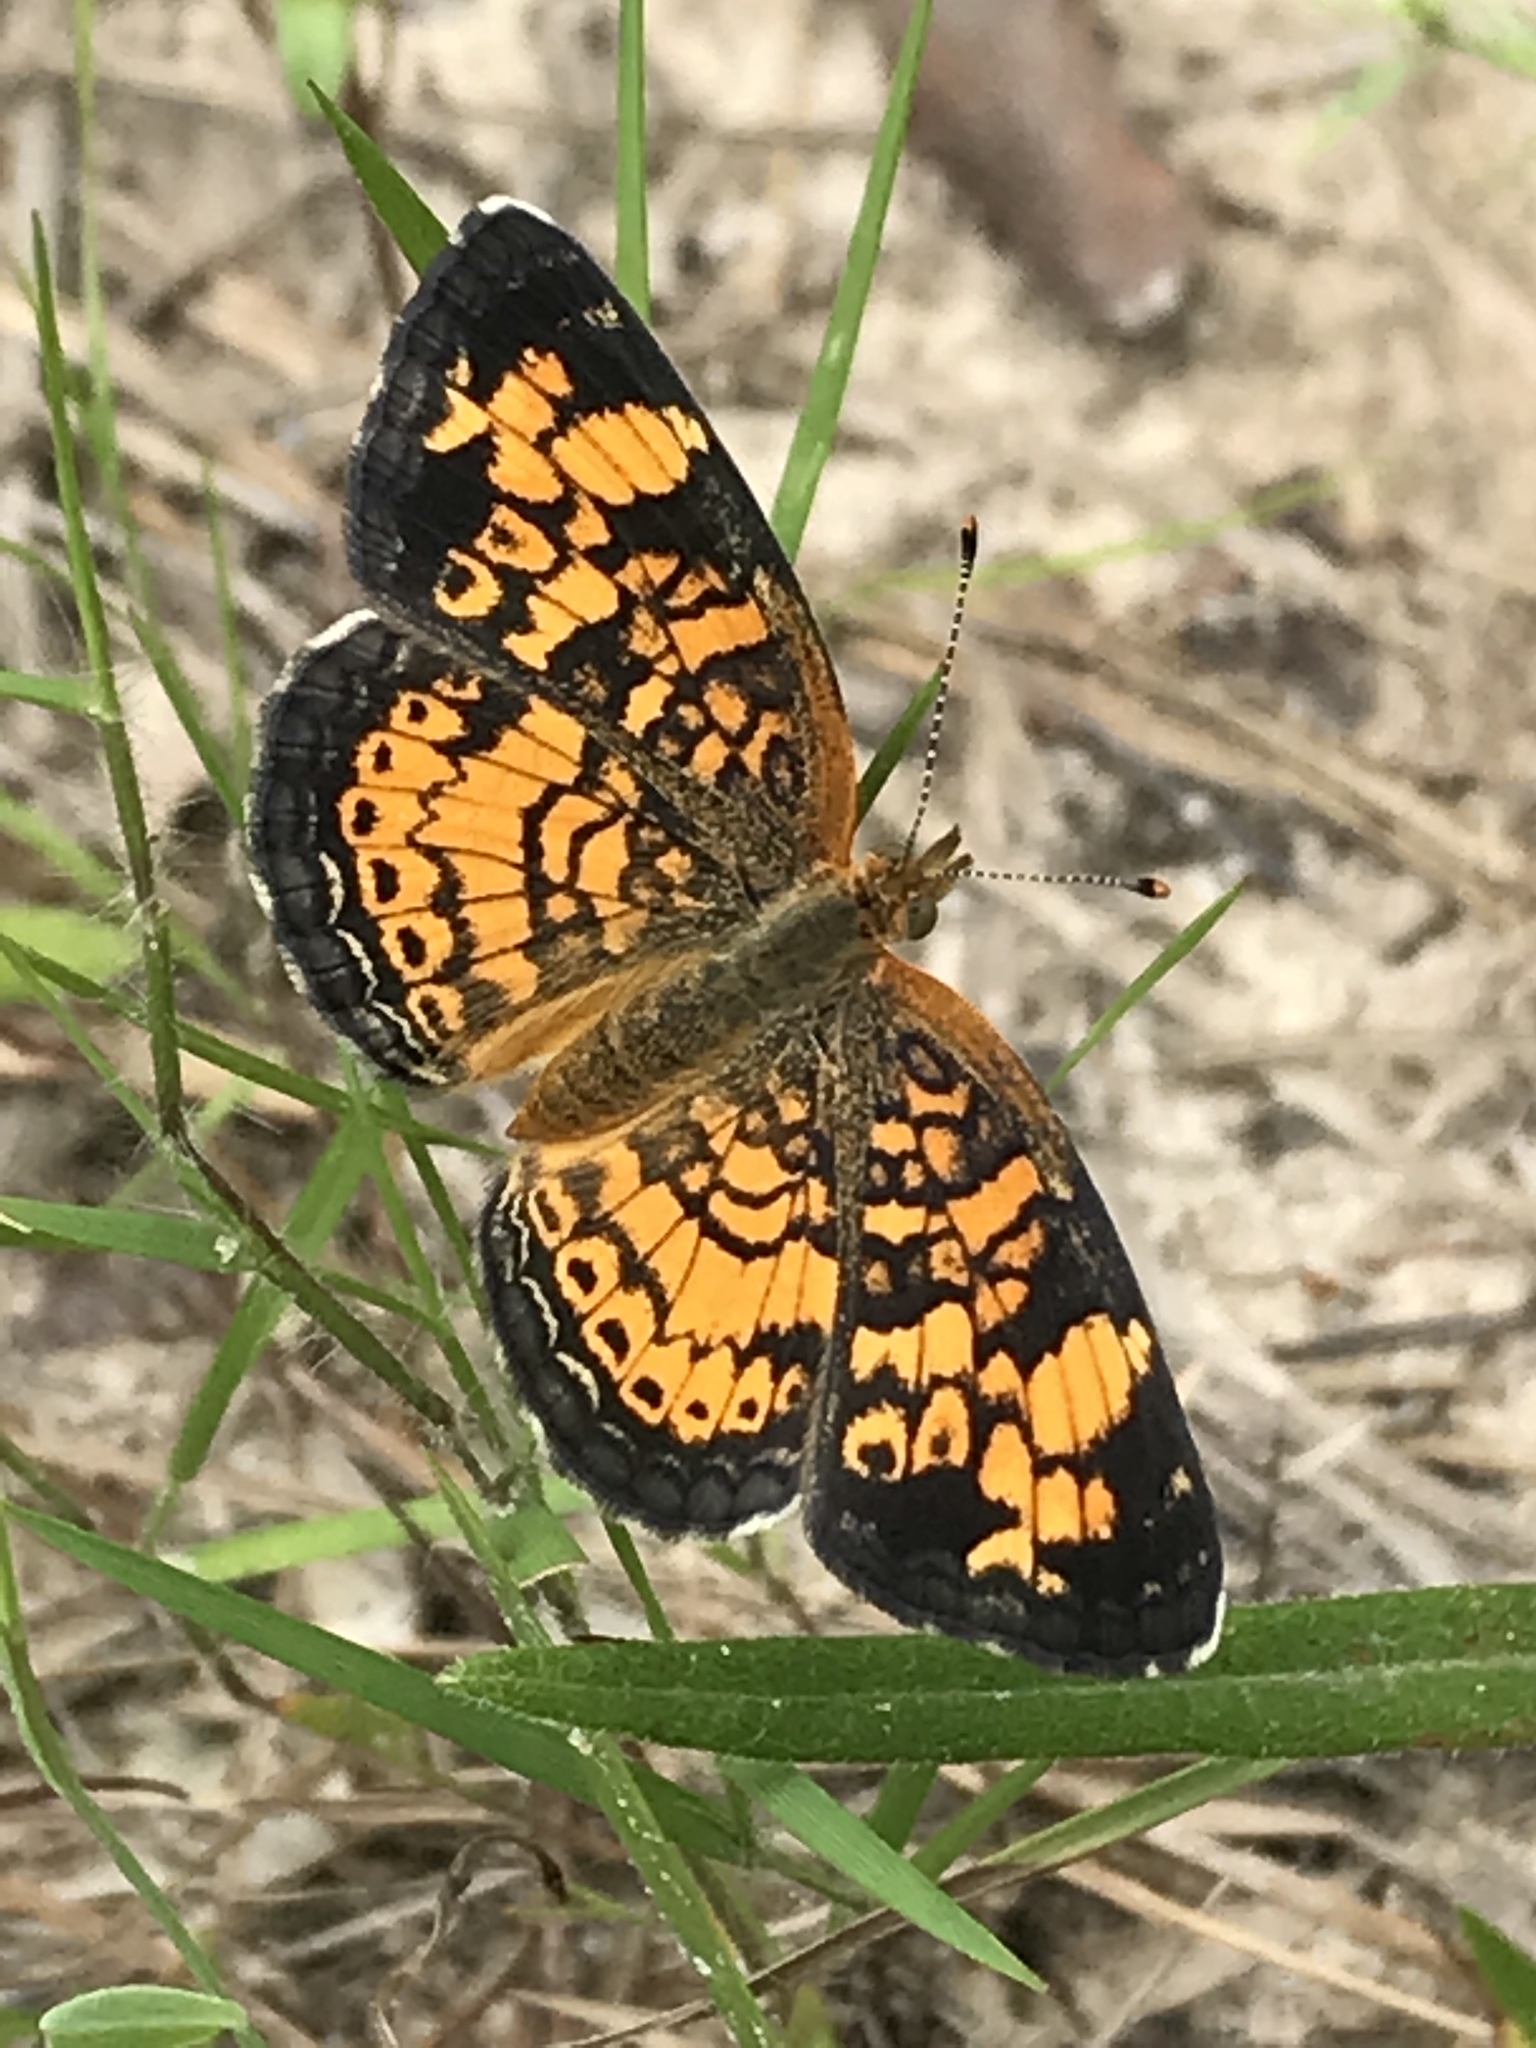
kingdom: Animalia
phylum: Arthropoda
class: Insecta
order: Lepidoptera
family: Nymphalidae
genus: Phyciodes
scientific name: Phyciodes tharos
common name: Pearl crescent
